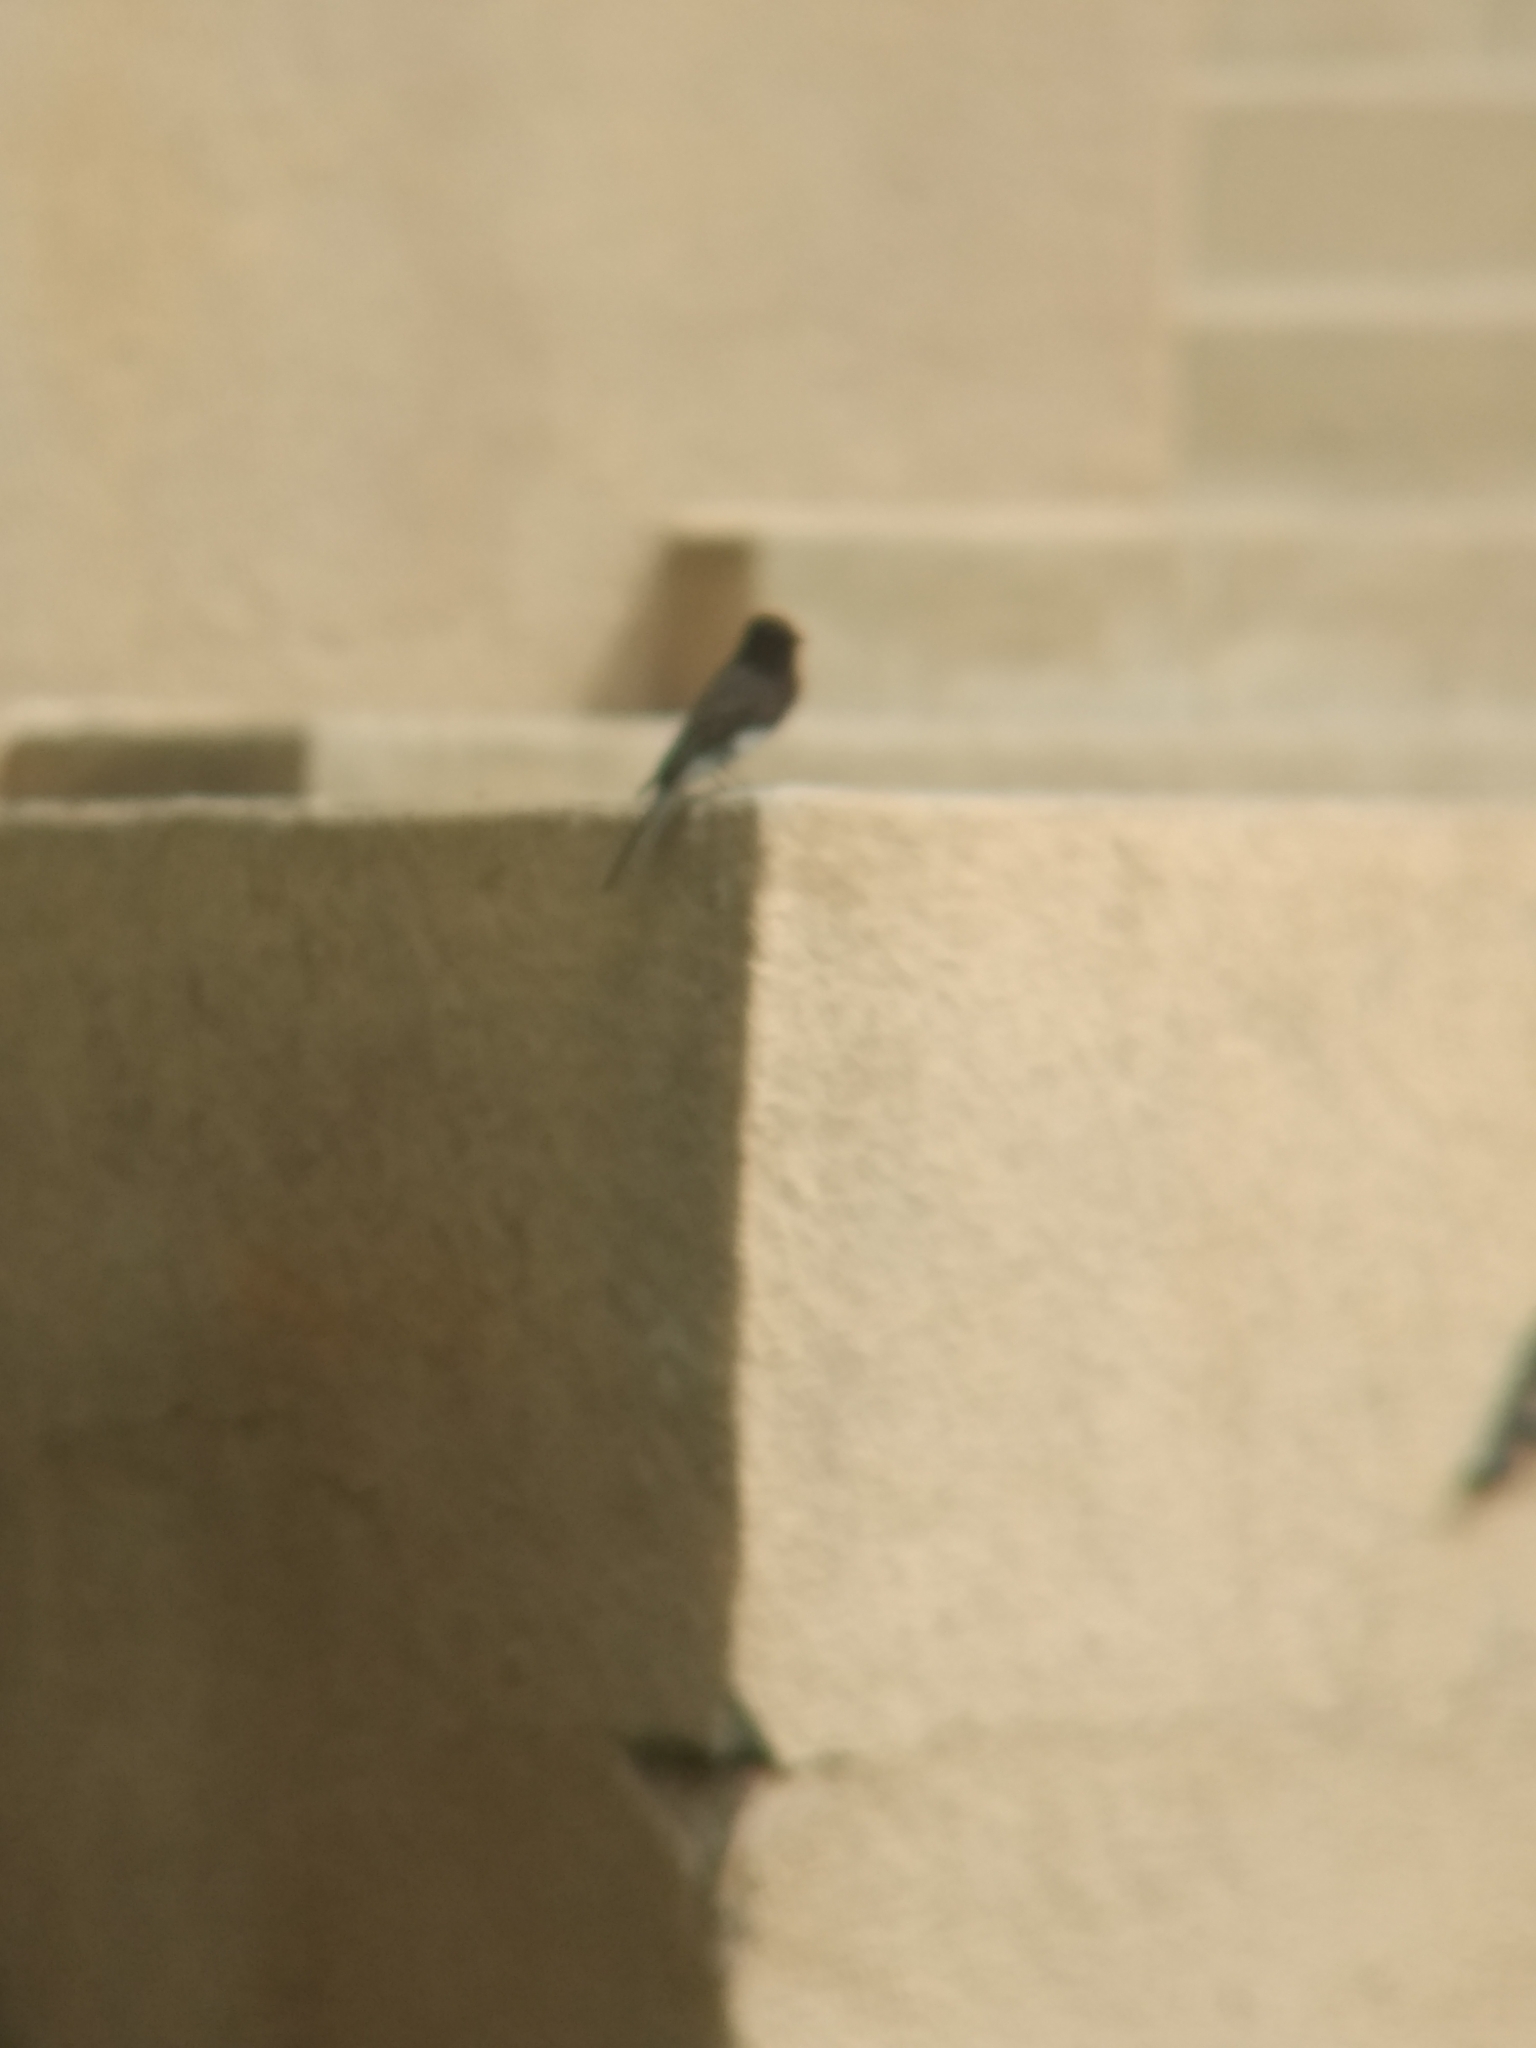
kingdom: Animalia
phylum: Chordata
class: Aves
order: Passeriformes
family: Tyrannidae
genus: Sayornis
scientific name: Sayornis nigricans
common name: Black phoebe
